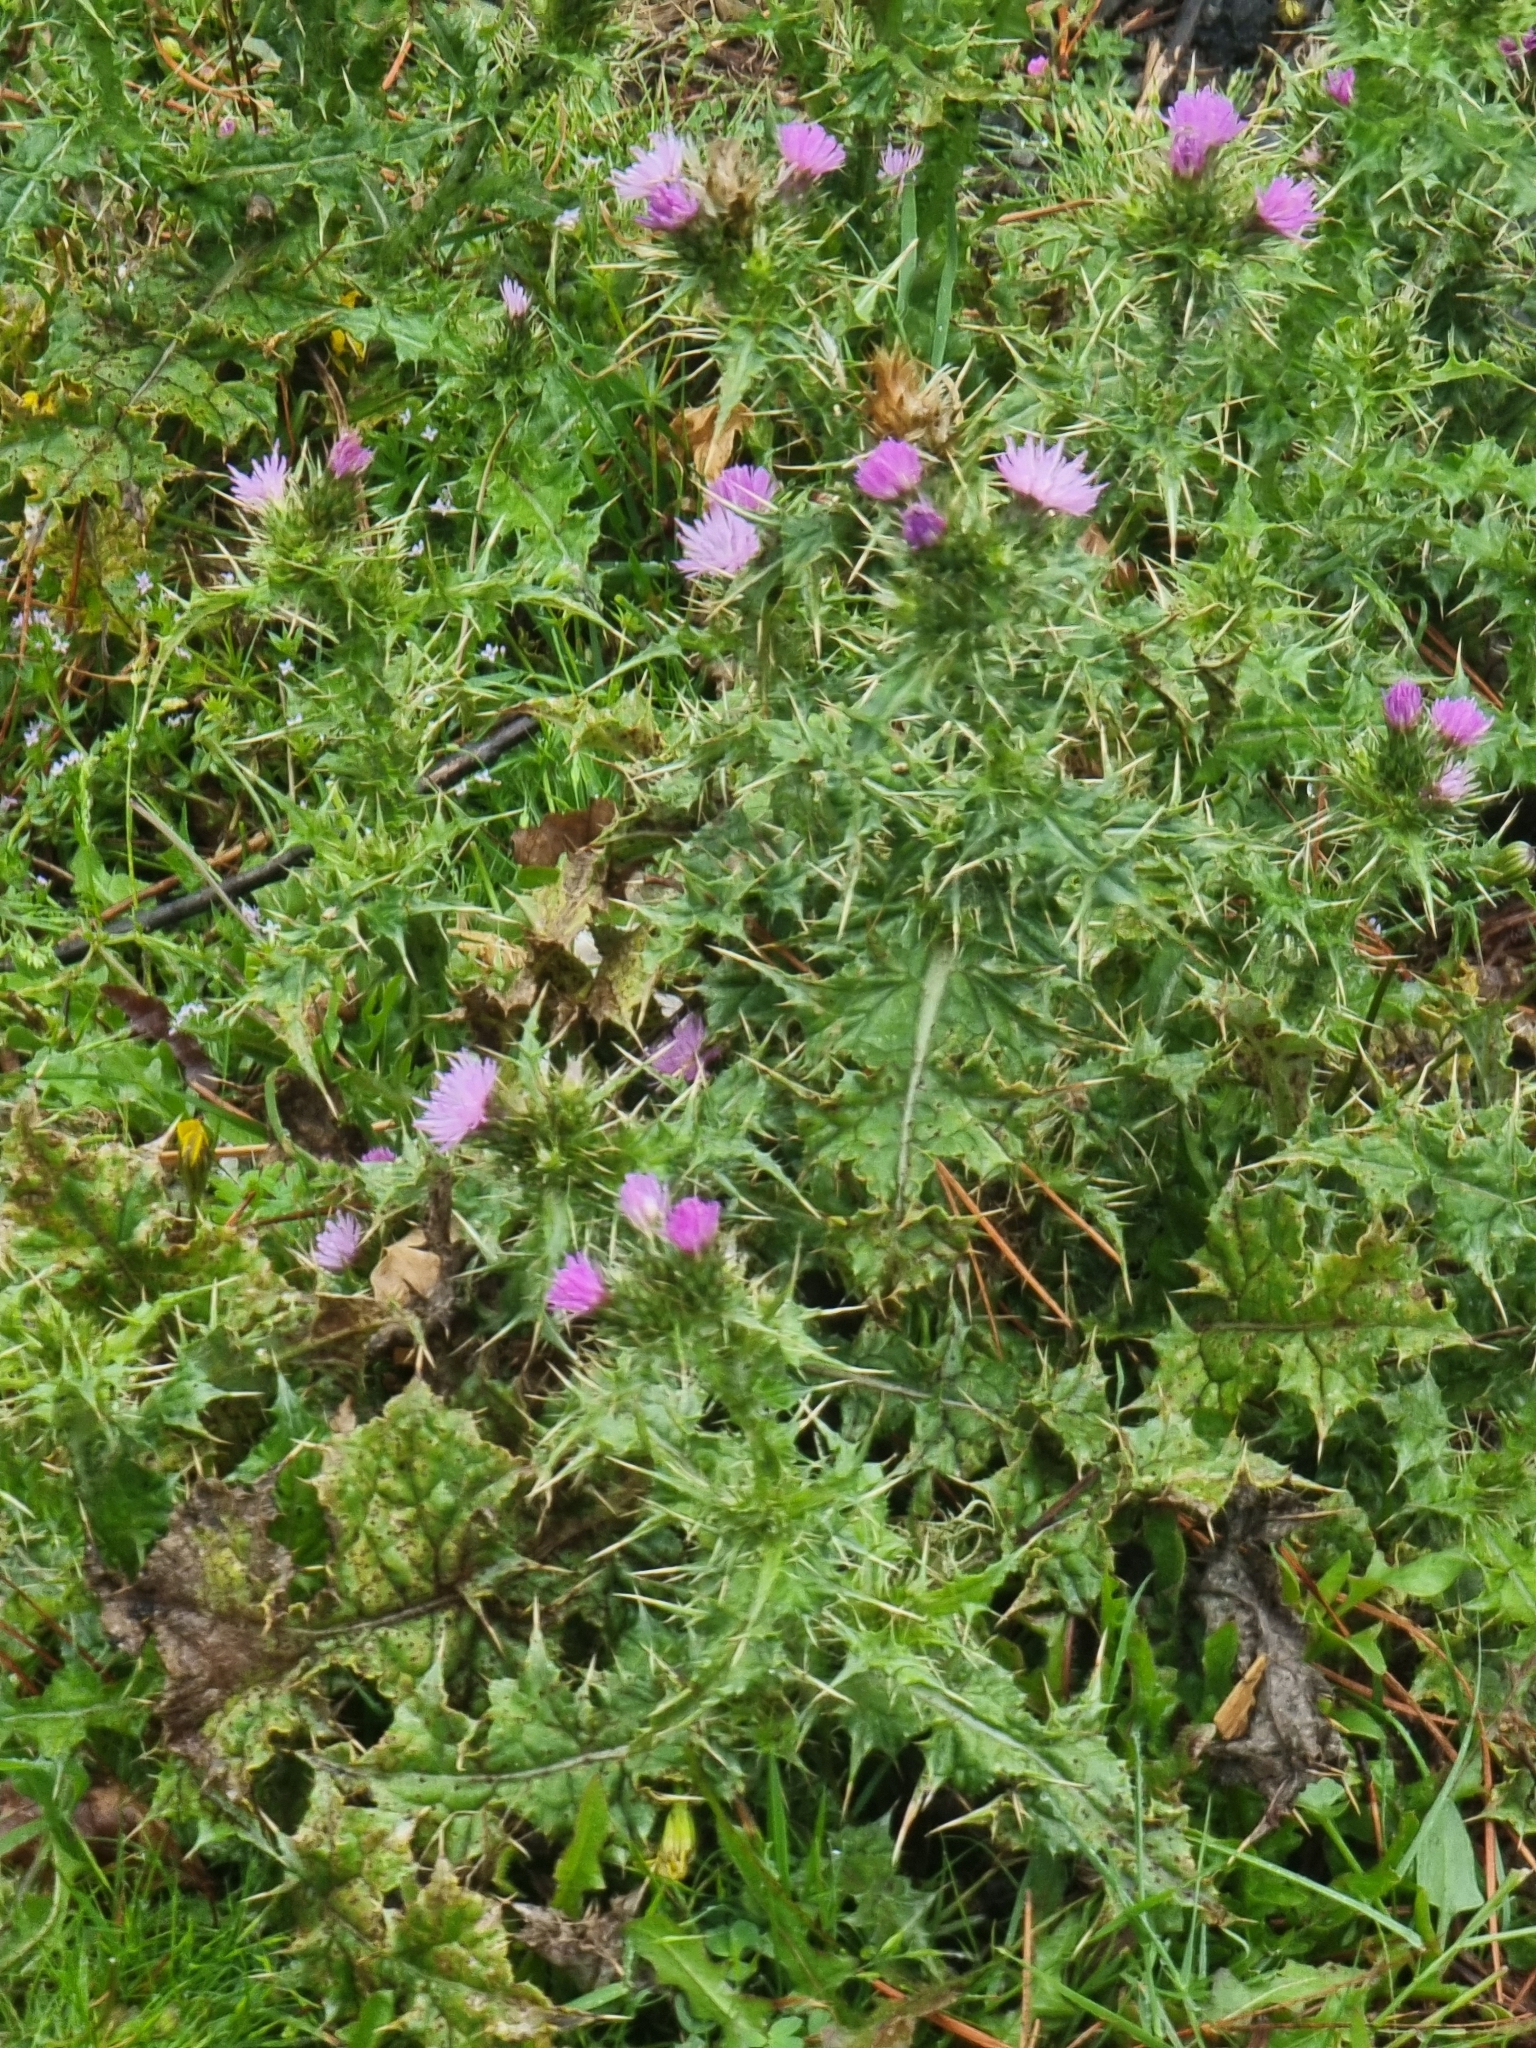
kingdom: Plantae
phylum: Tracheophyta
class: Magnoliopsida
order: Asterales
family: Asteraceae
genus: Cirsium
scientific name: Cirsium vulgare
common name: Bull thistle
